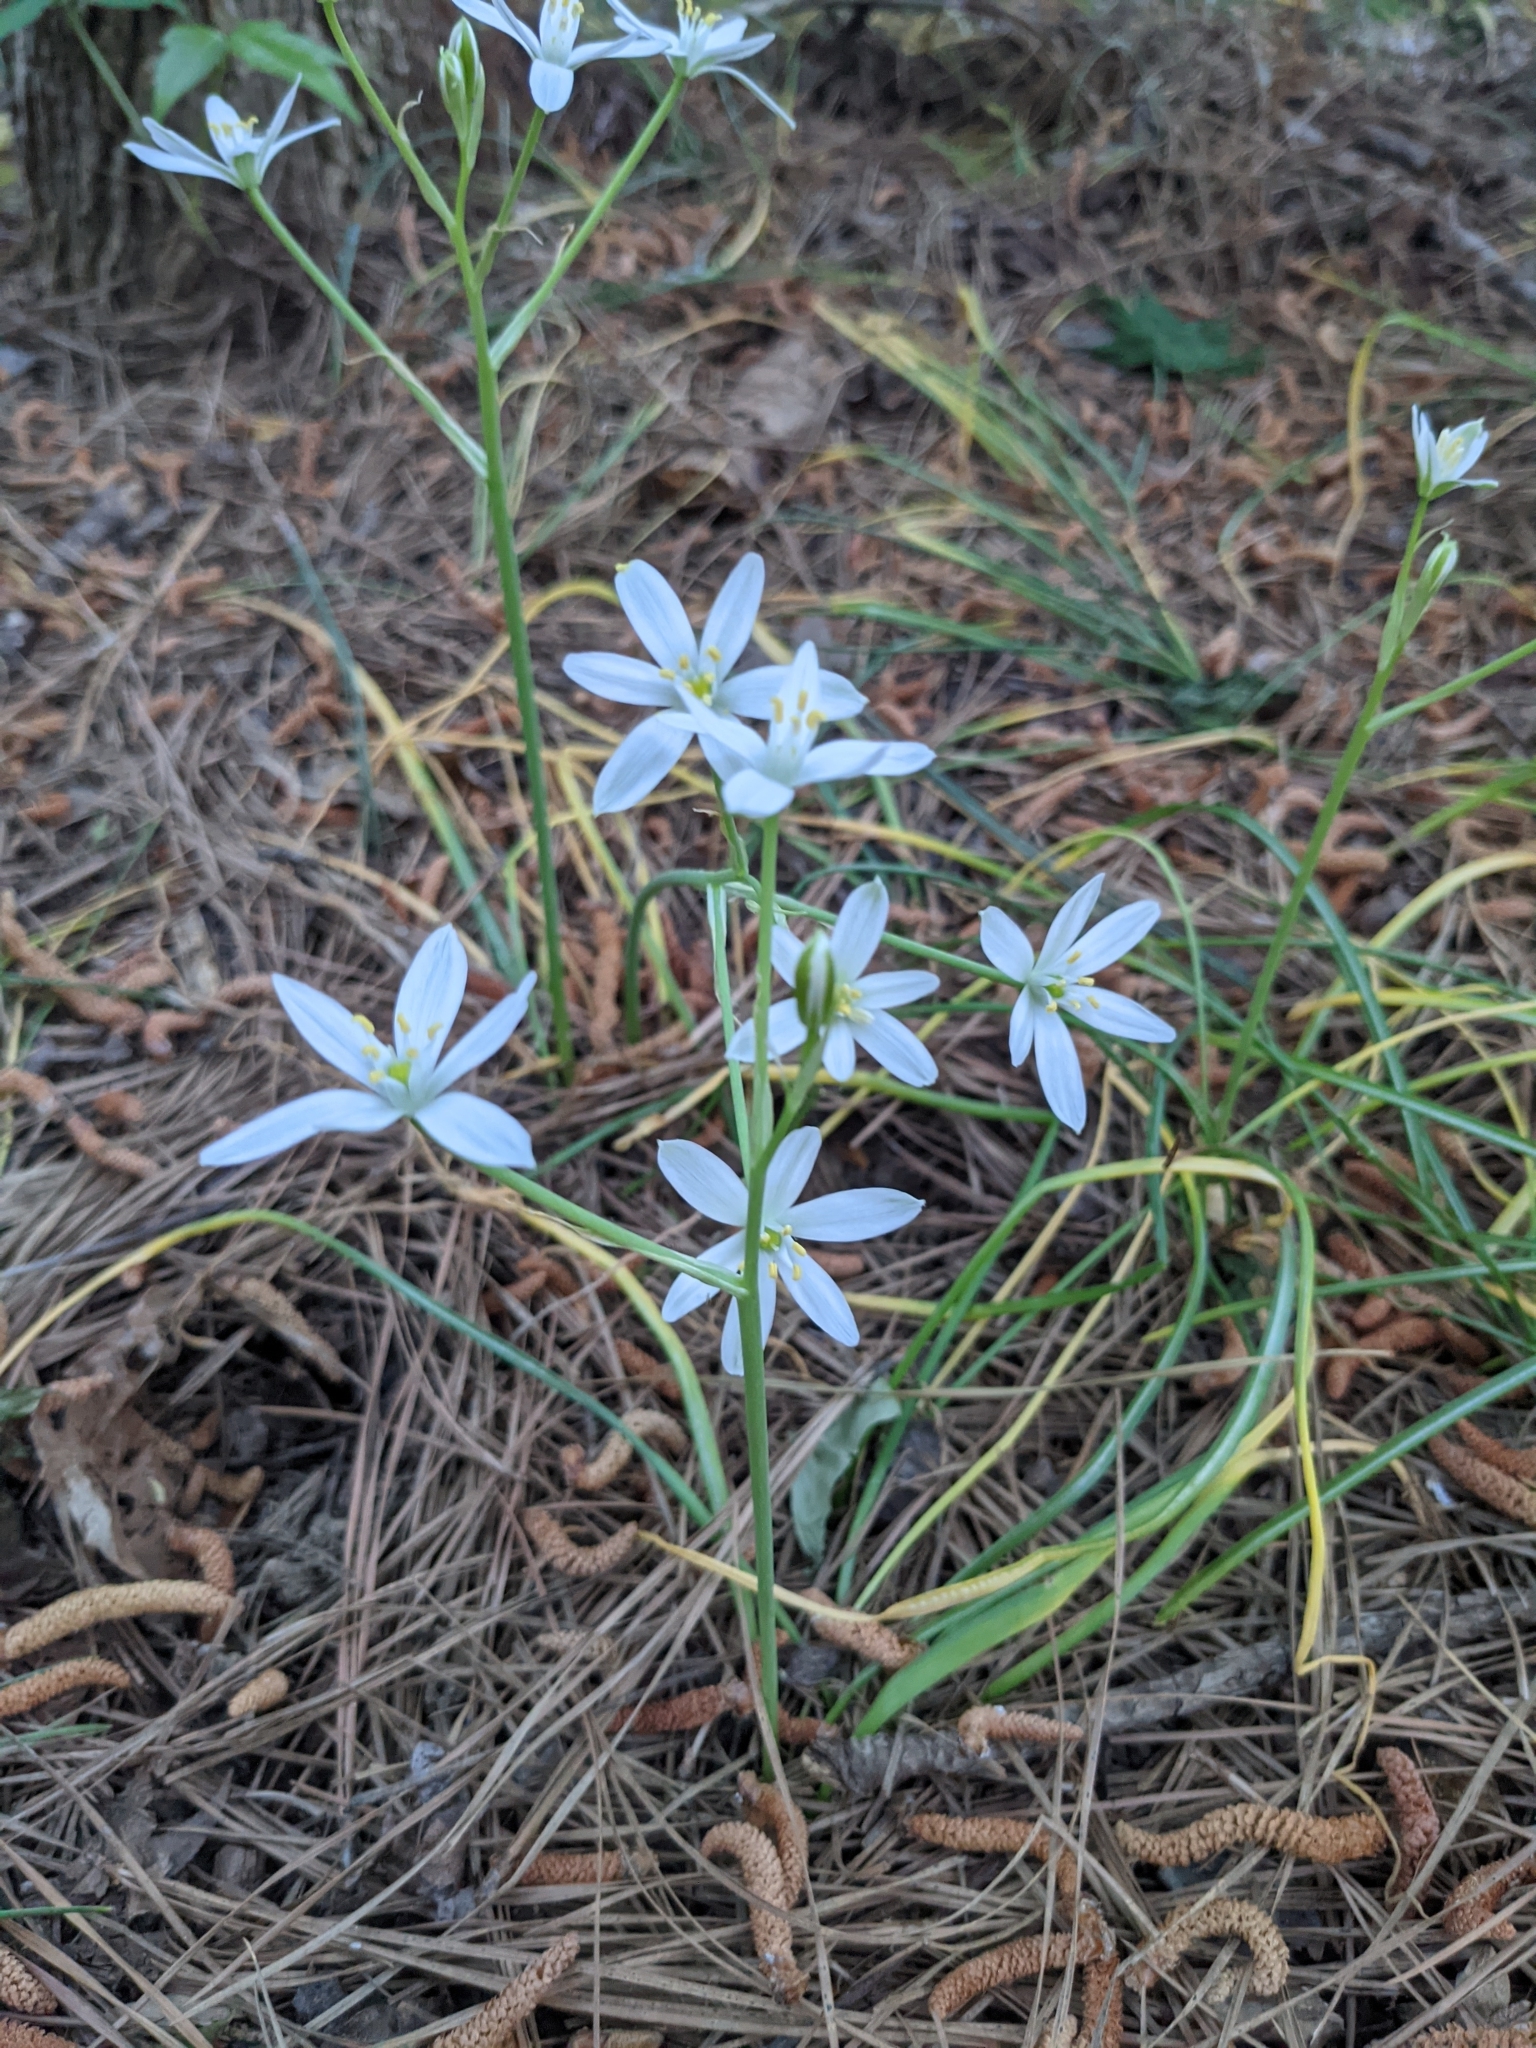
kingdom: Plantae
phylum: Tracheophyta
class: Liliopsida
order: Asparagales
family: Asparagaceae
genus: Ornithogalum
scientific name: Ornithogalum umbellatum
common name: Garden star-of-bethlehem
